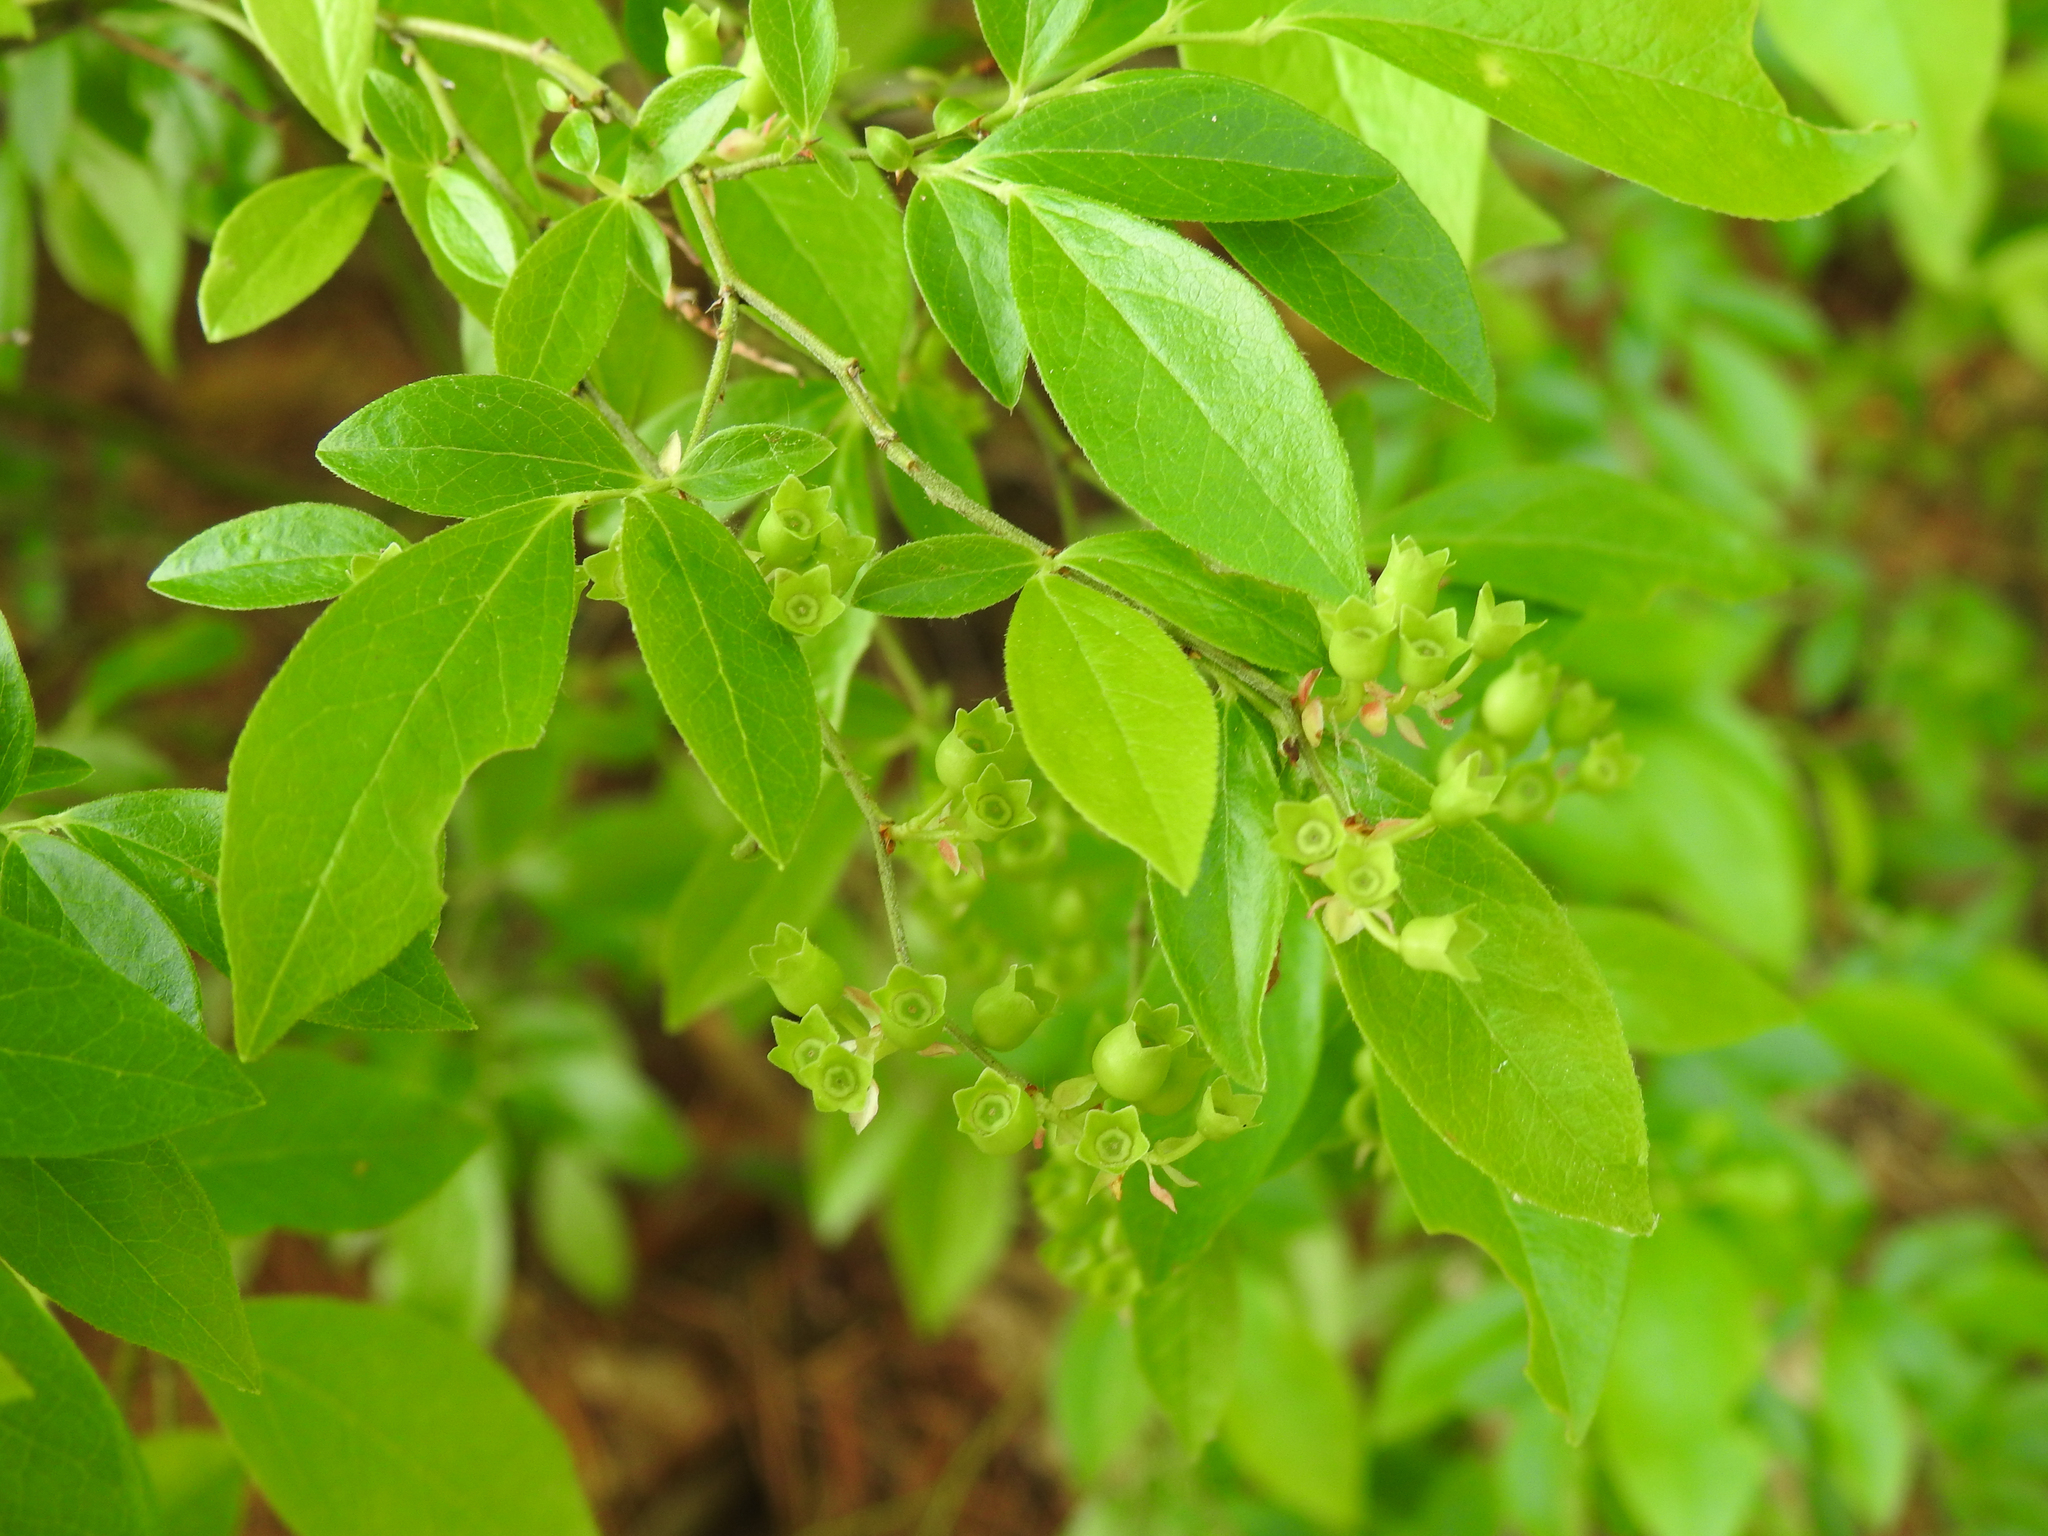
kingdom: Plantae
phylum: Tracheophyta
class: Magnoliopsida
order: Ericales
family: Ericaceae
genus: Vaccinium
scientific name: Vaccinium angustifolium
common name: Early lowbush blueberry
